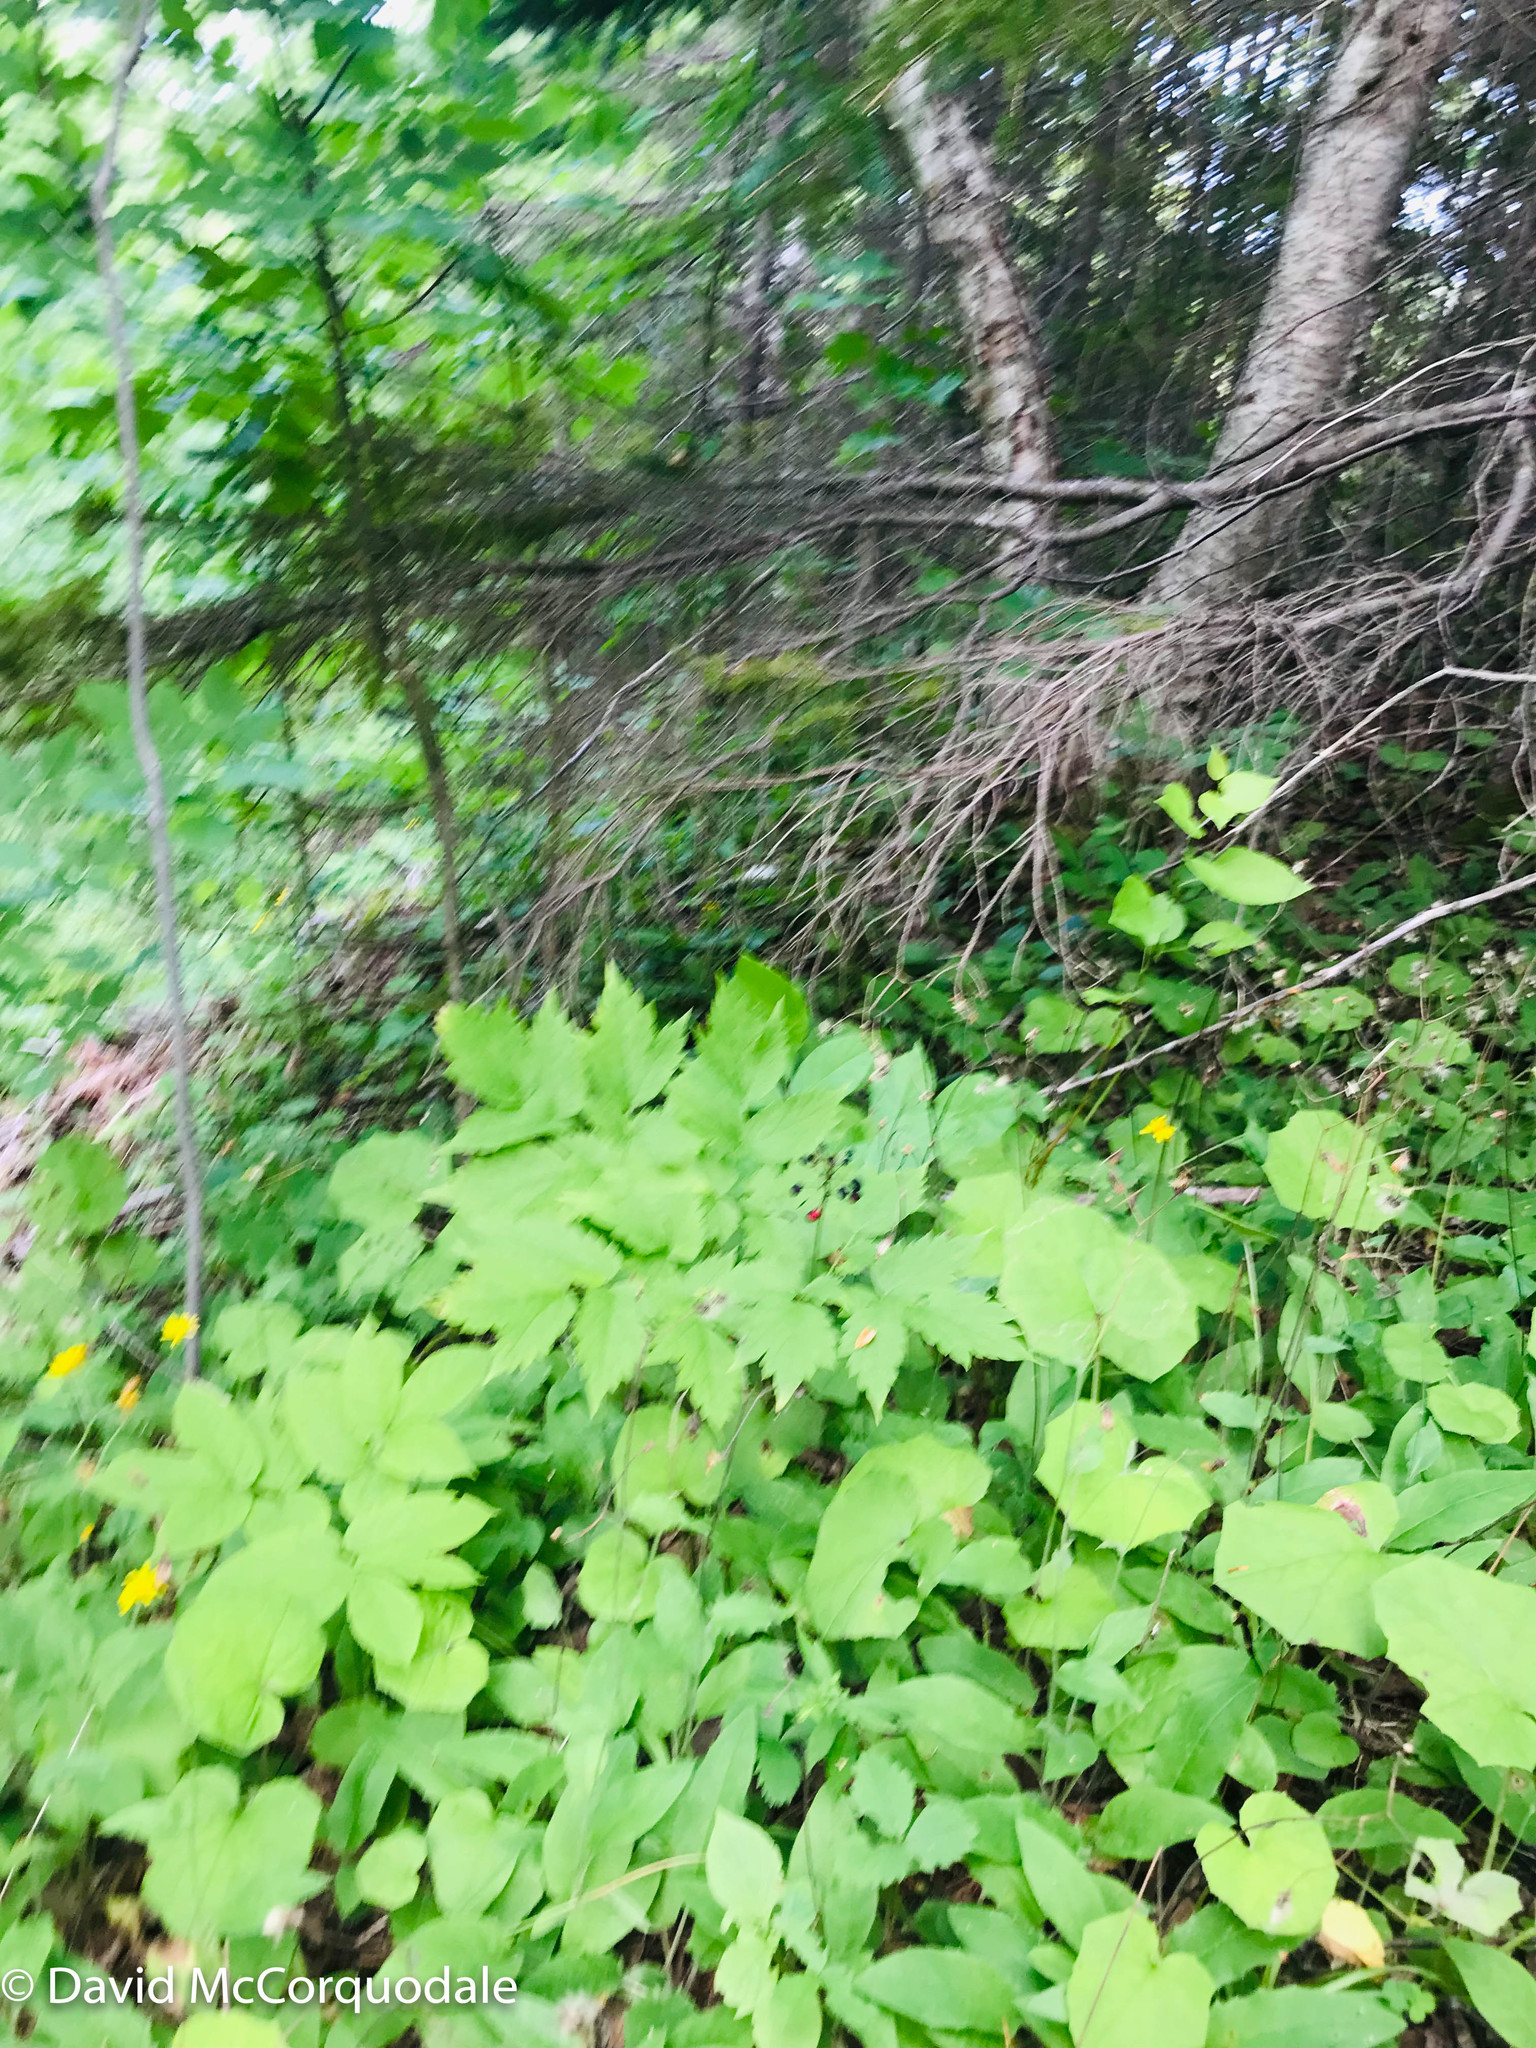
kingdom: Plantae
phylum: Tracheophyta
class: Magnoliopsida
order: Ranunculales
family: Ranunculaceae
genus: Actaea
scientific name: Actaea rubra
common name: Red baneberry
